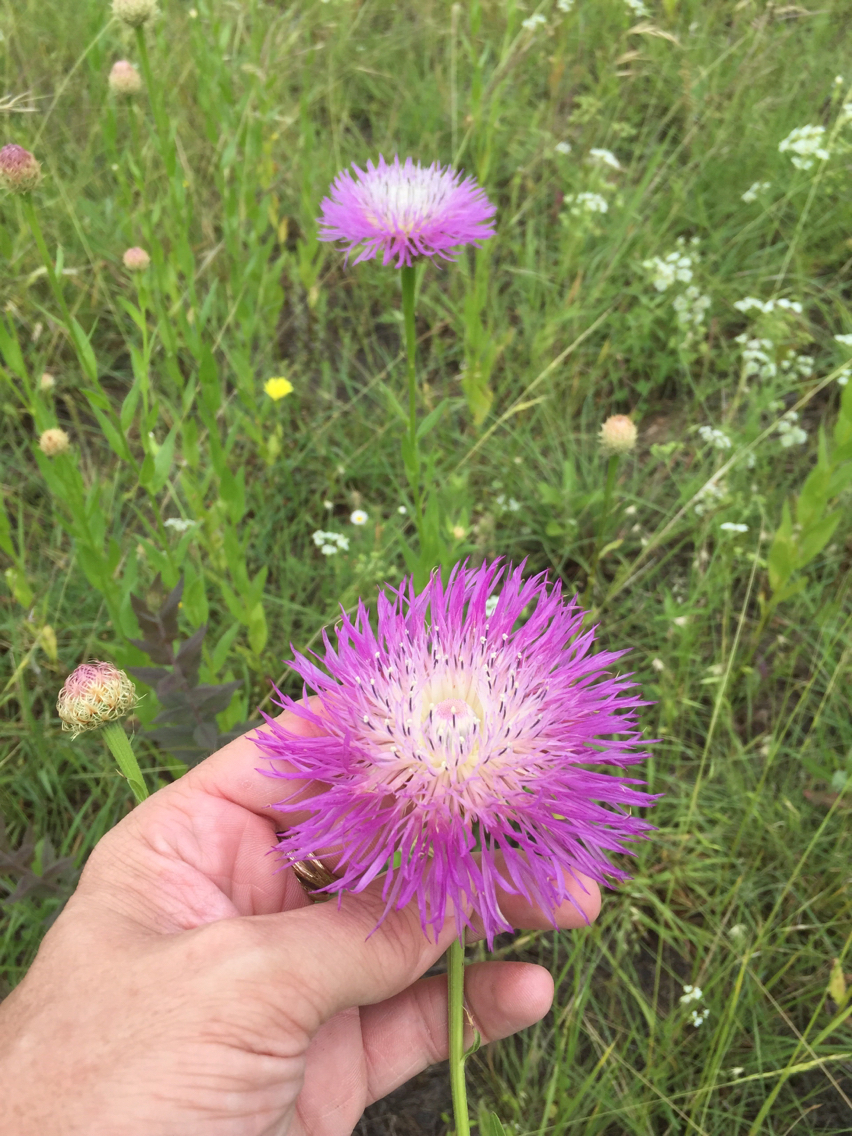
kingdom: Plantae
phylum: Tracheophyta
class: Magnoliopsida
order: Asterales
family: Asteraceae
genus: Plectocephalus
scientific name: Plectocephalus americanus
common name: American basket-flower
